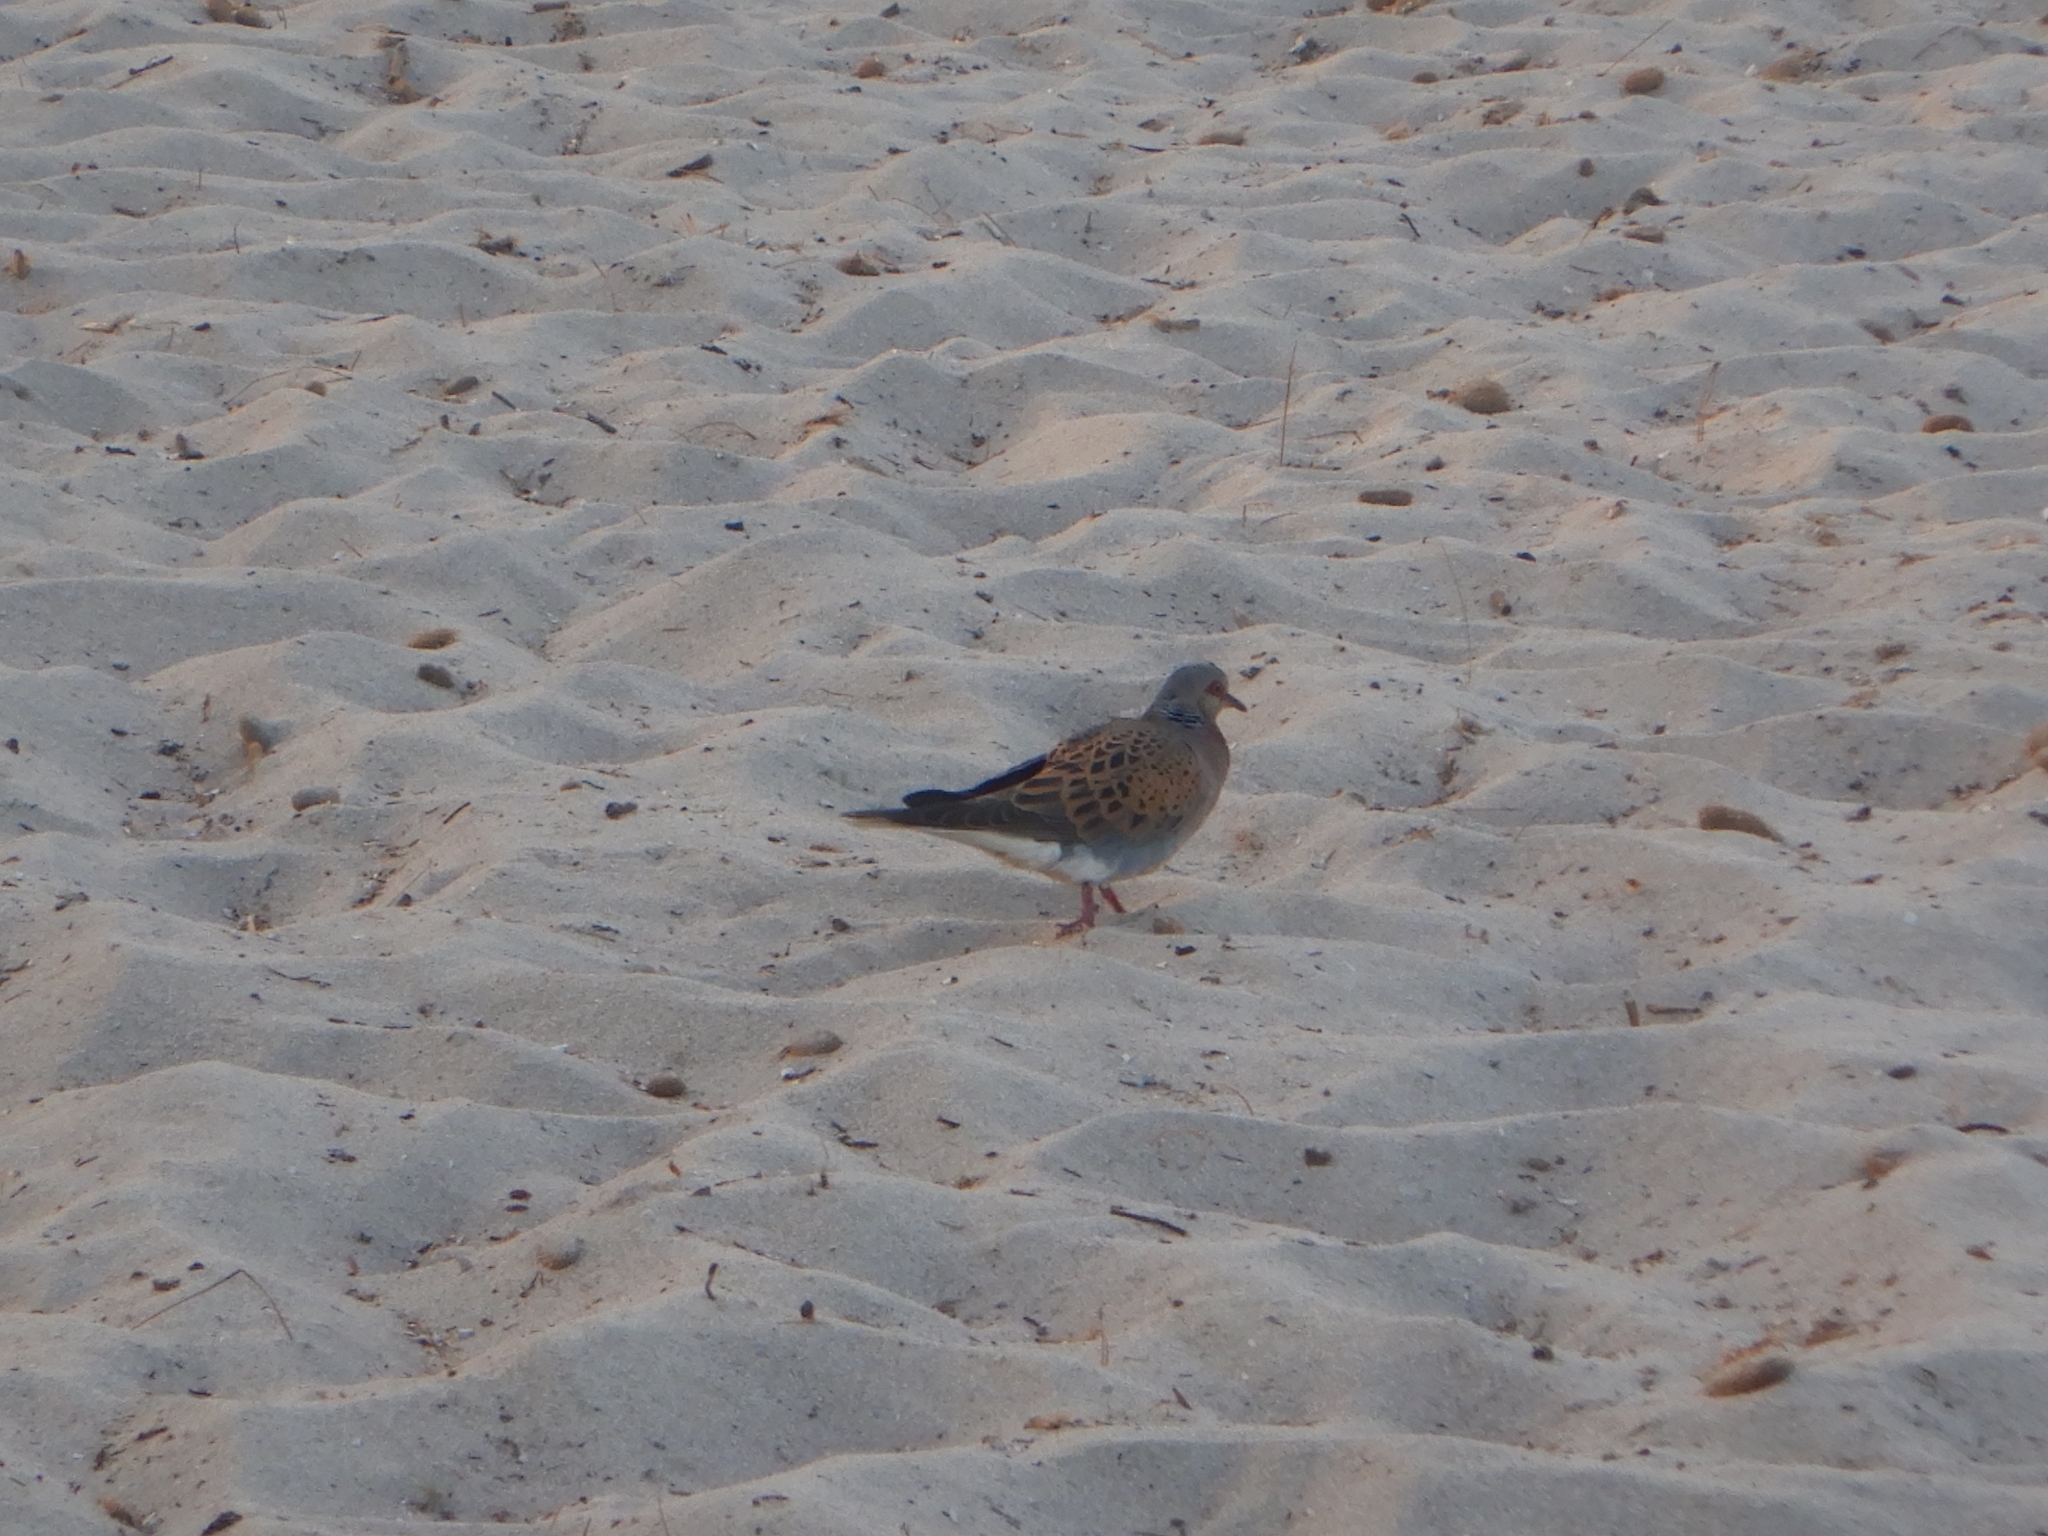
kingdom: Animalia
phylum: Chordata
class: Aves
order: Columbiformes
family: Columbidae
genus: Streptopelia
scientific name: Streptopelia turtur
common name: European turtle dove
